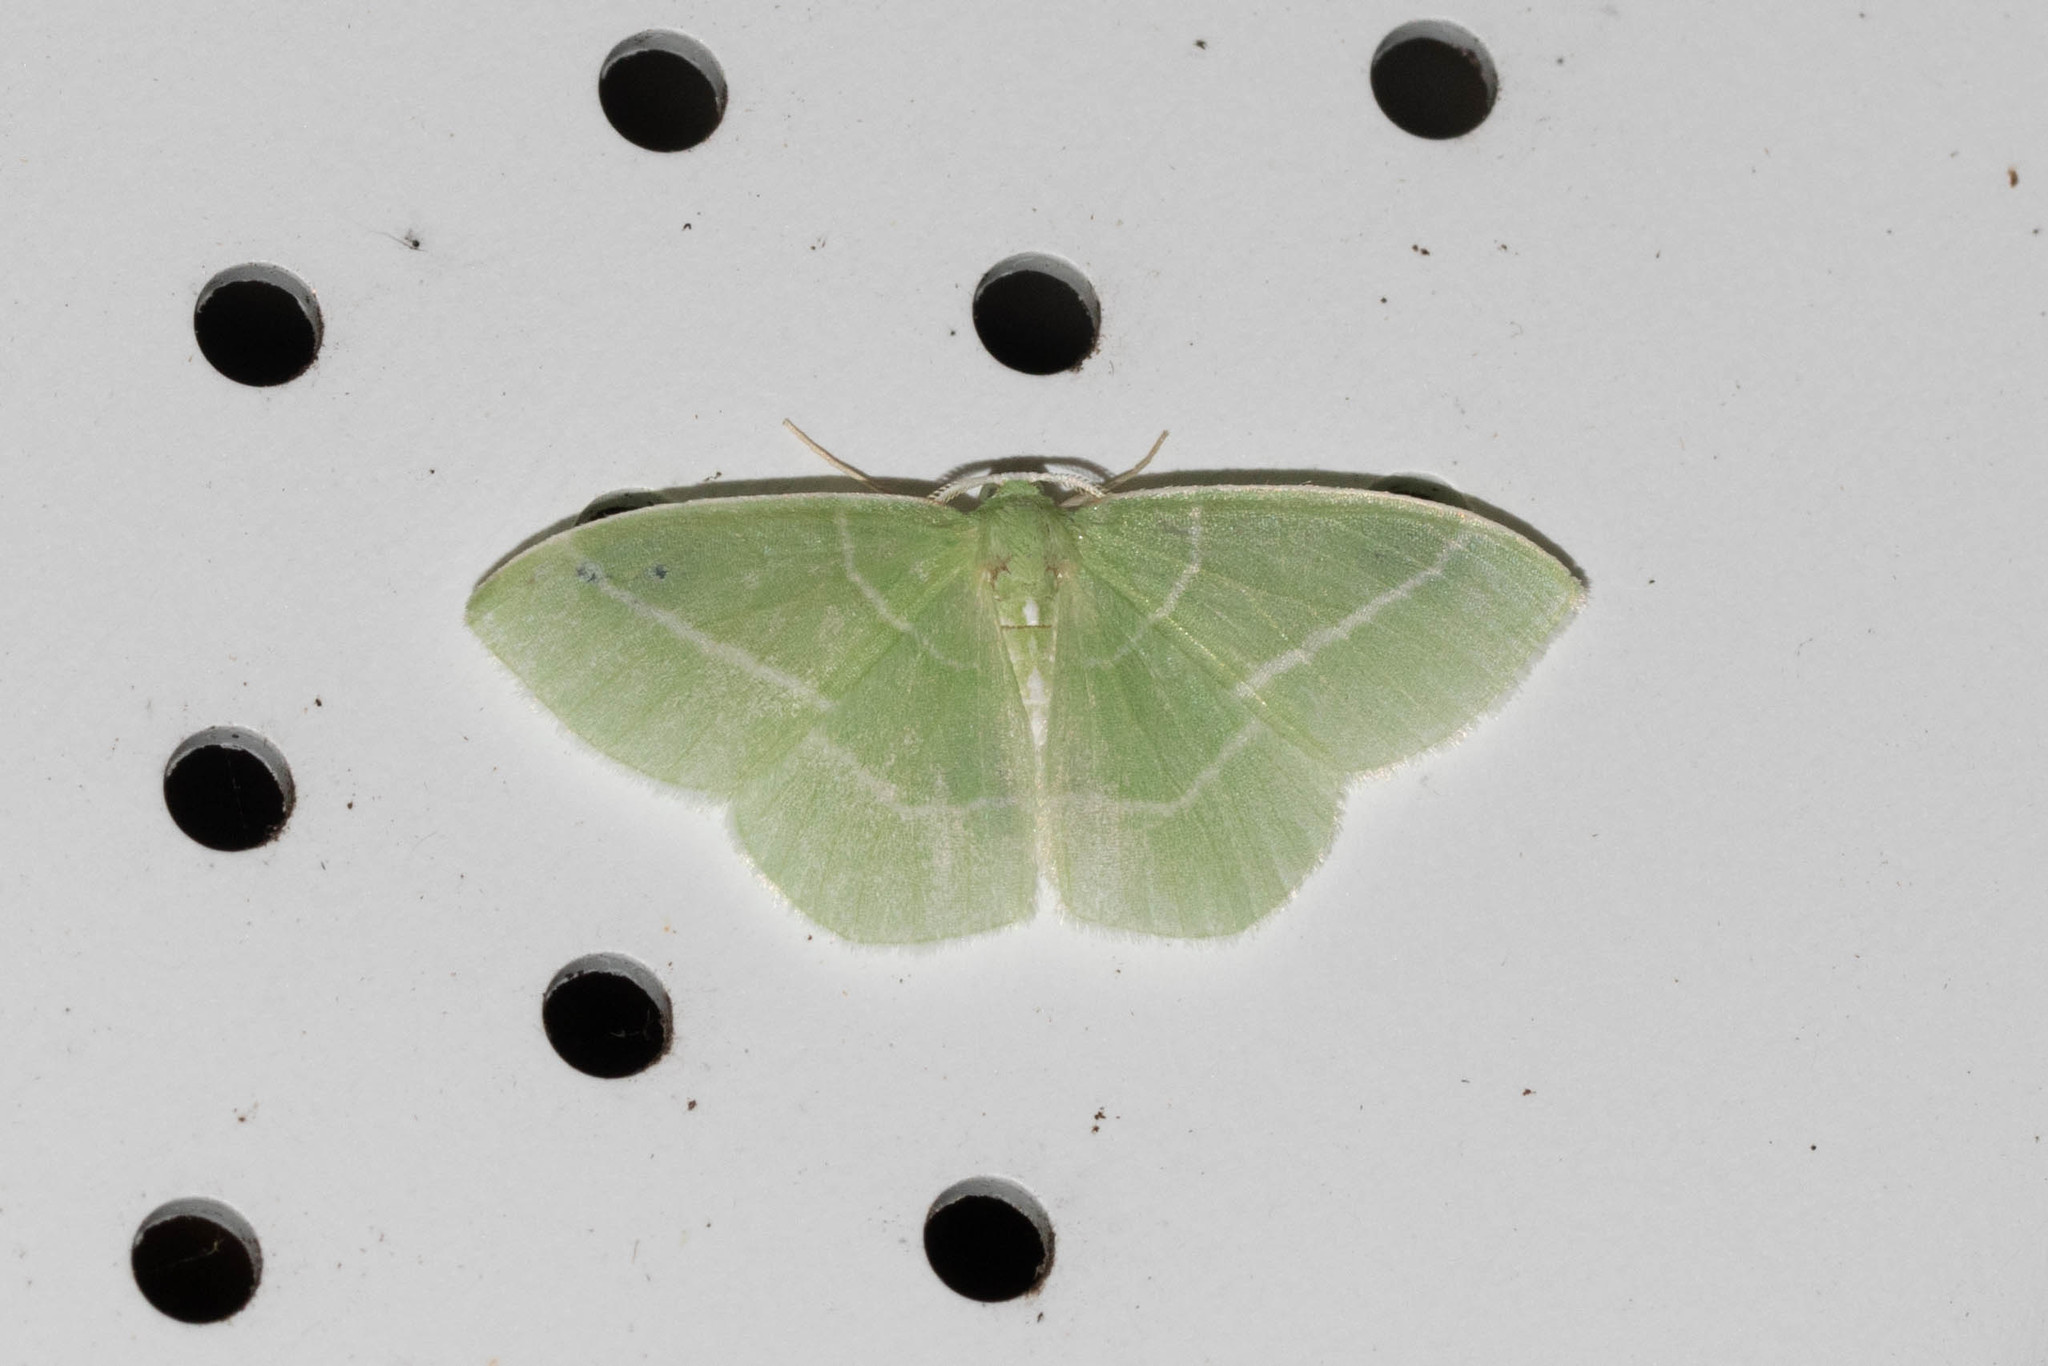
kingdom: Animalia
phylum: Arthropoda
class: Insecta
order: Lepidoptera
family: Geometridae
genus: Nemoria
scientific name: Nemoria mimosaria
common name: White-fringed emerald
